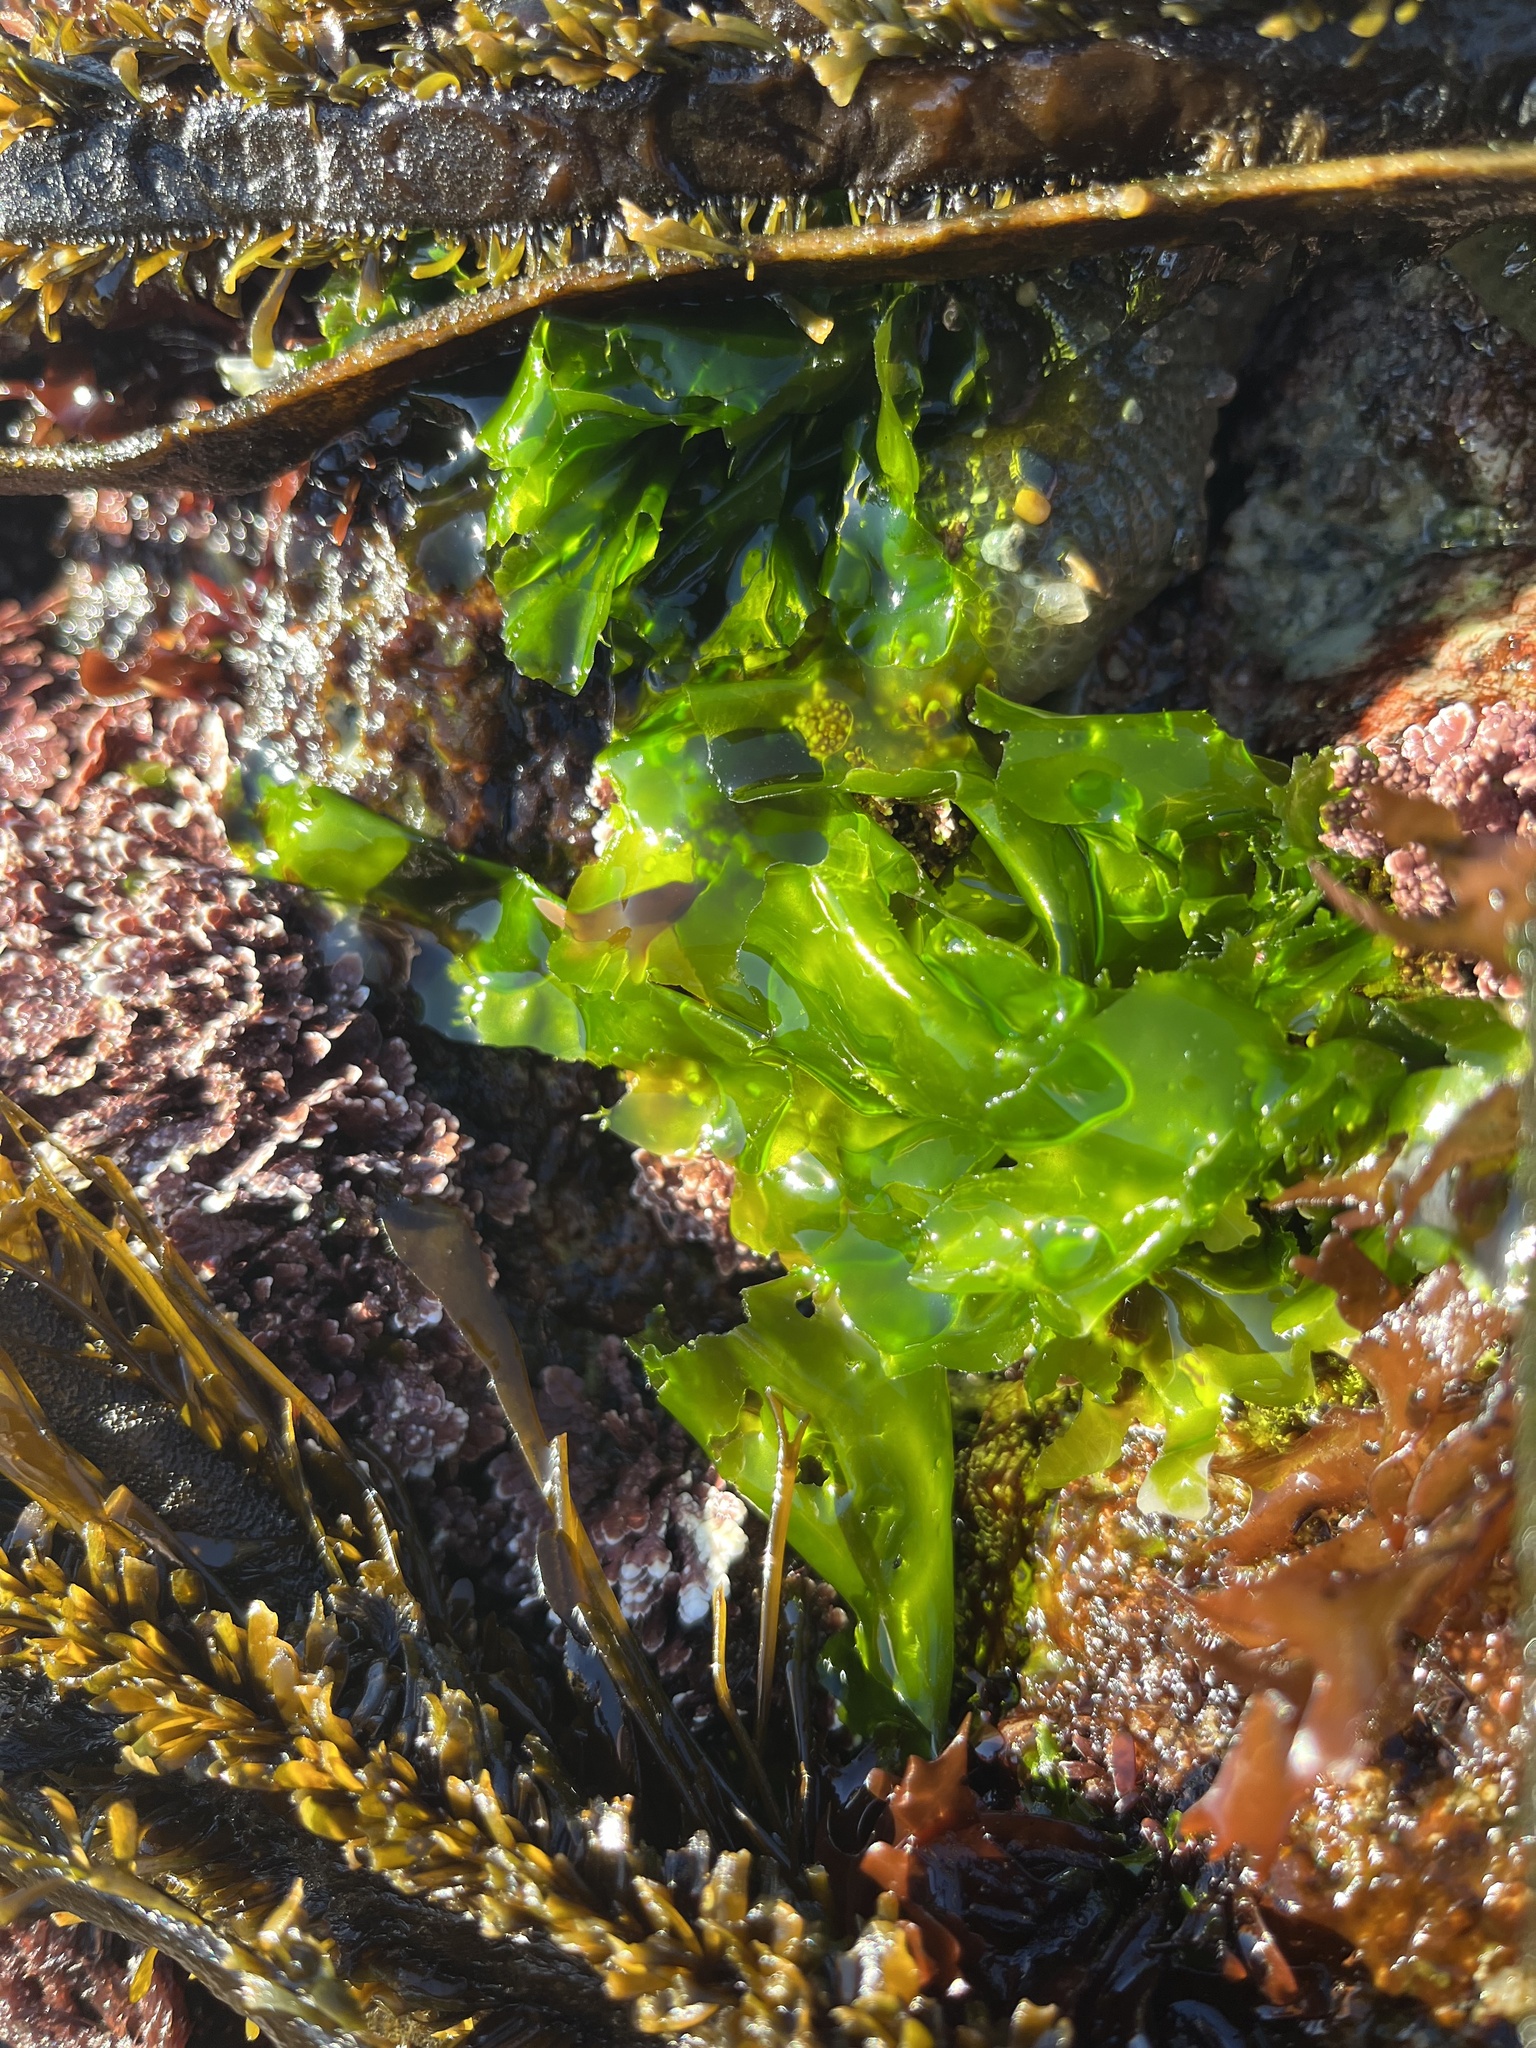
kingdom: Plantae
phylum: Chlorophyta
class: Ulvophyceae
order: Ulvales
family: Ulvaceae
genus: Ulva
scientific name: Ulva lactuca
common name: Sea lettuce
